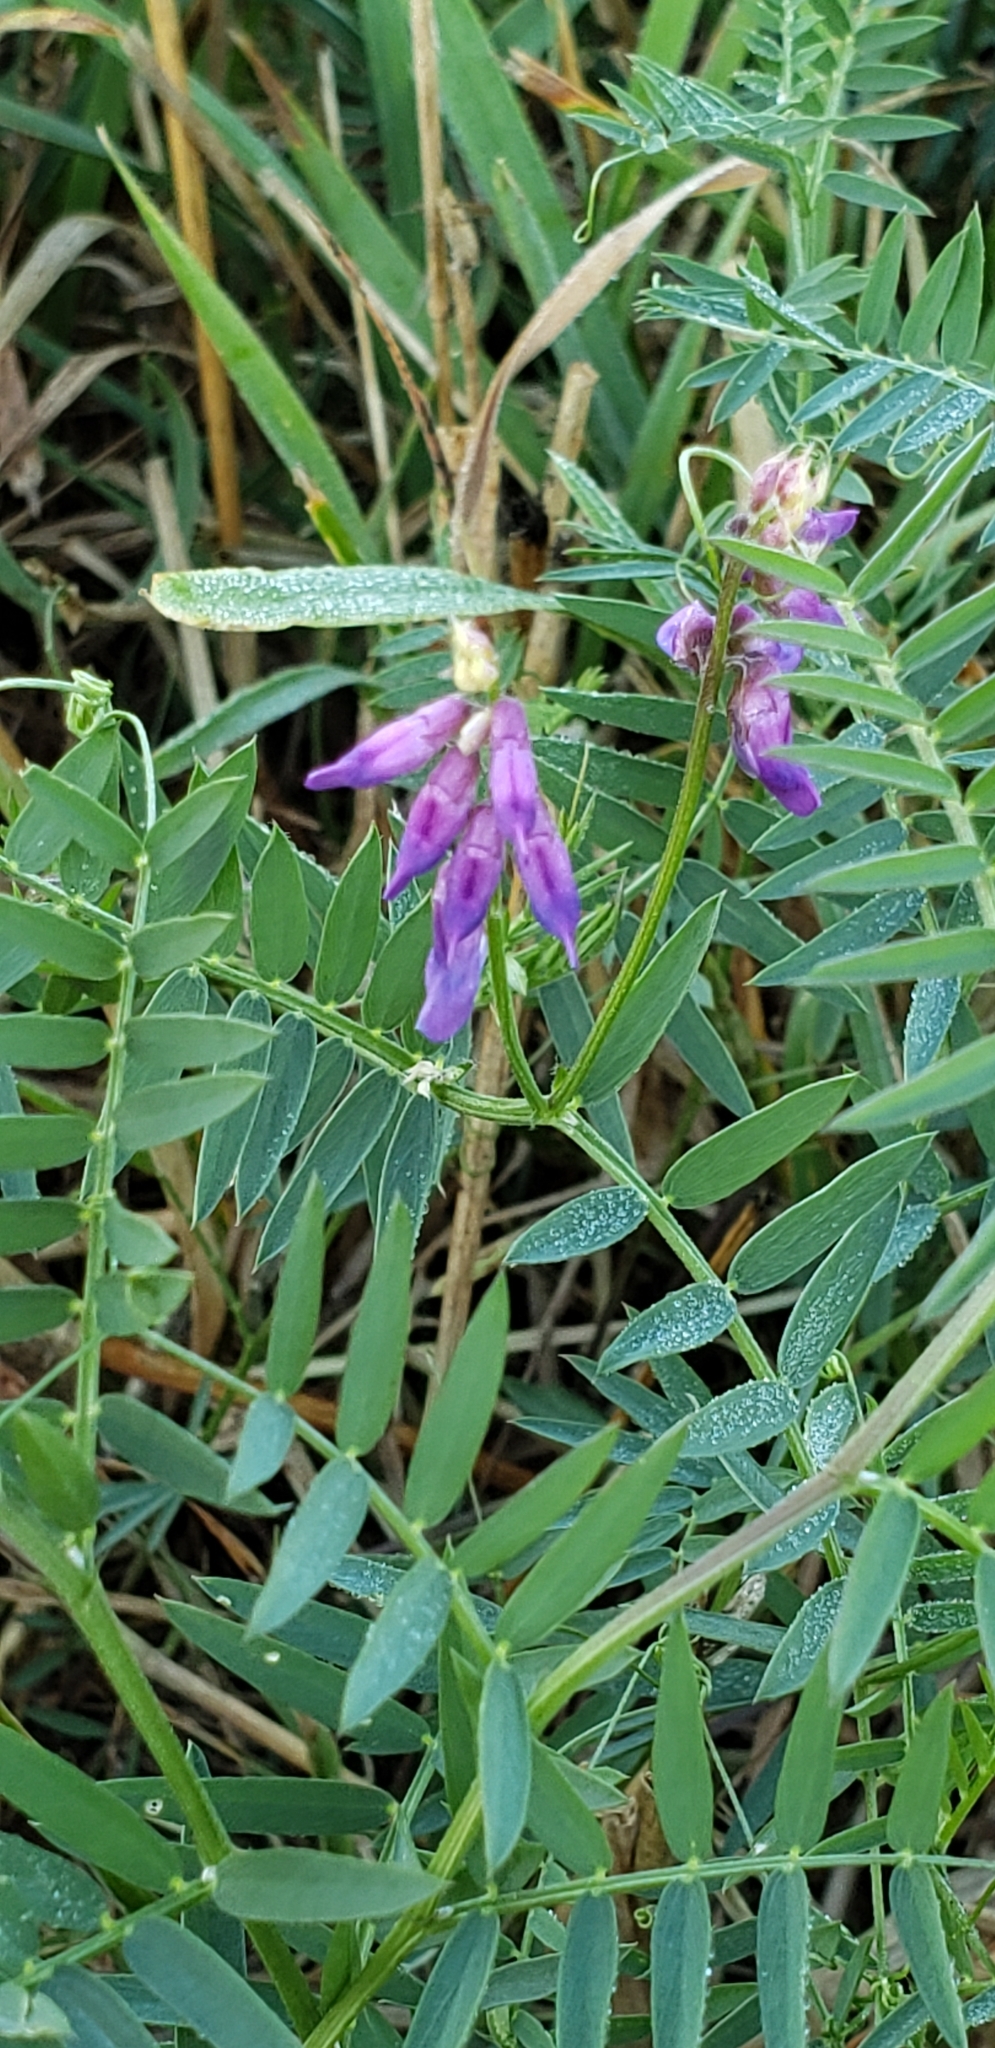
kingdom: Plantae
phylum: Tracheophyta
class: Magnoliopsida
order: Fabales
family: Fabaceae
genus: Vicia
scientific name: Vicia cracca
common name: Bird vetch
